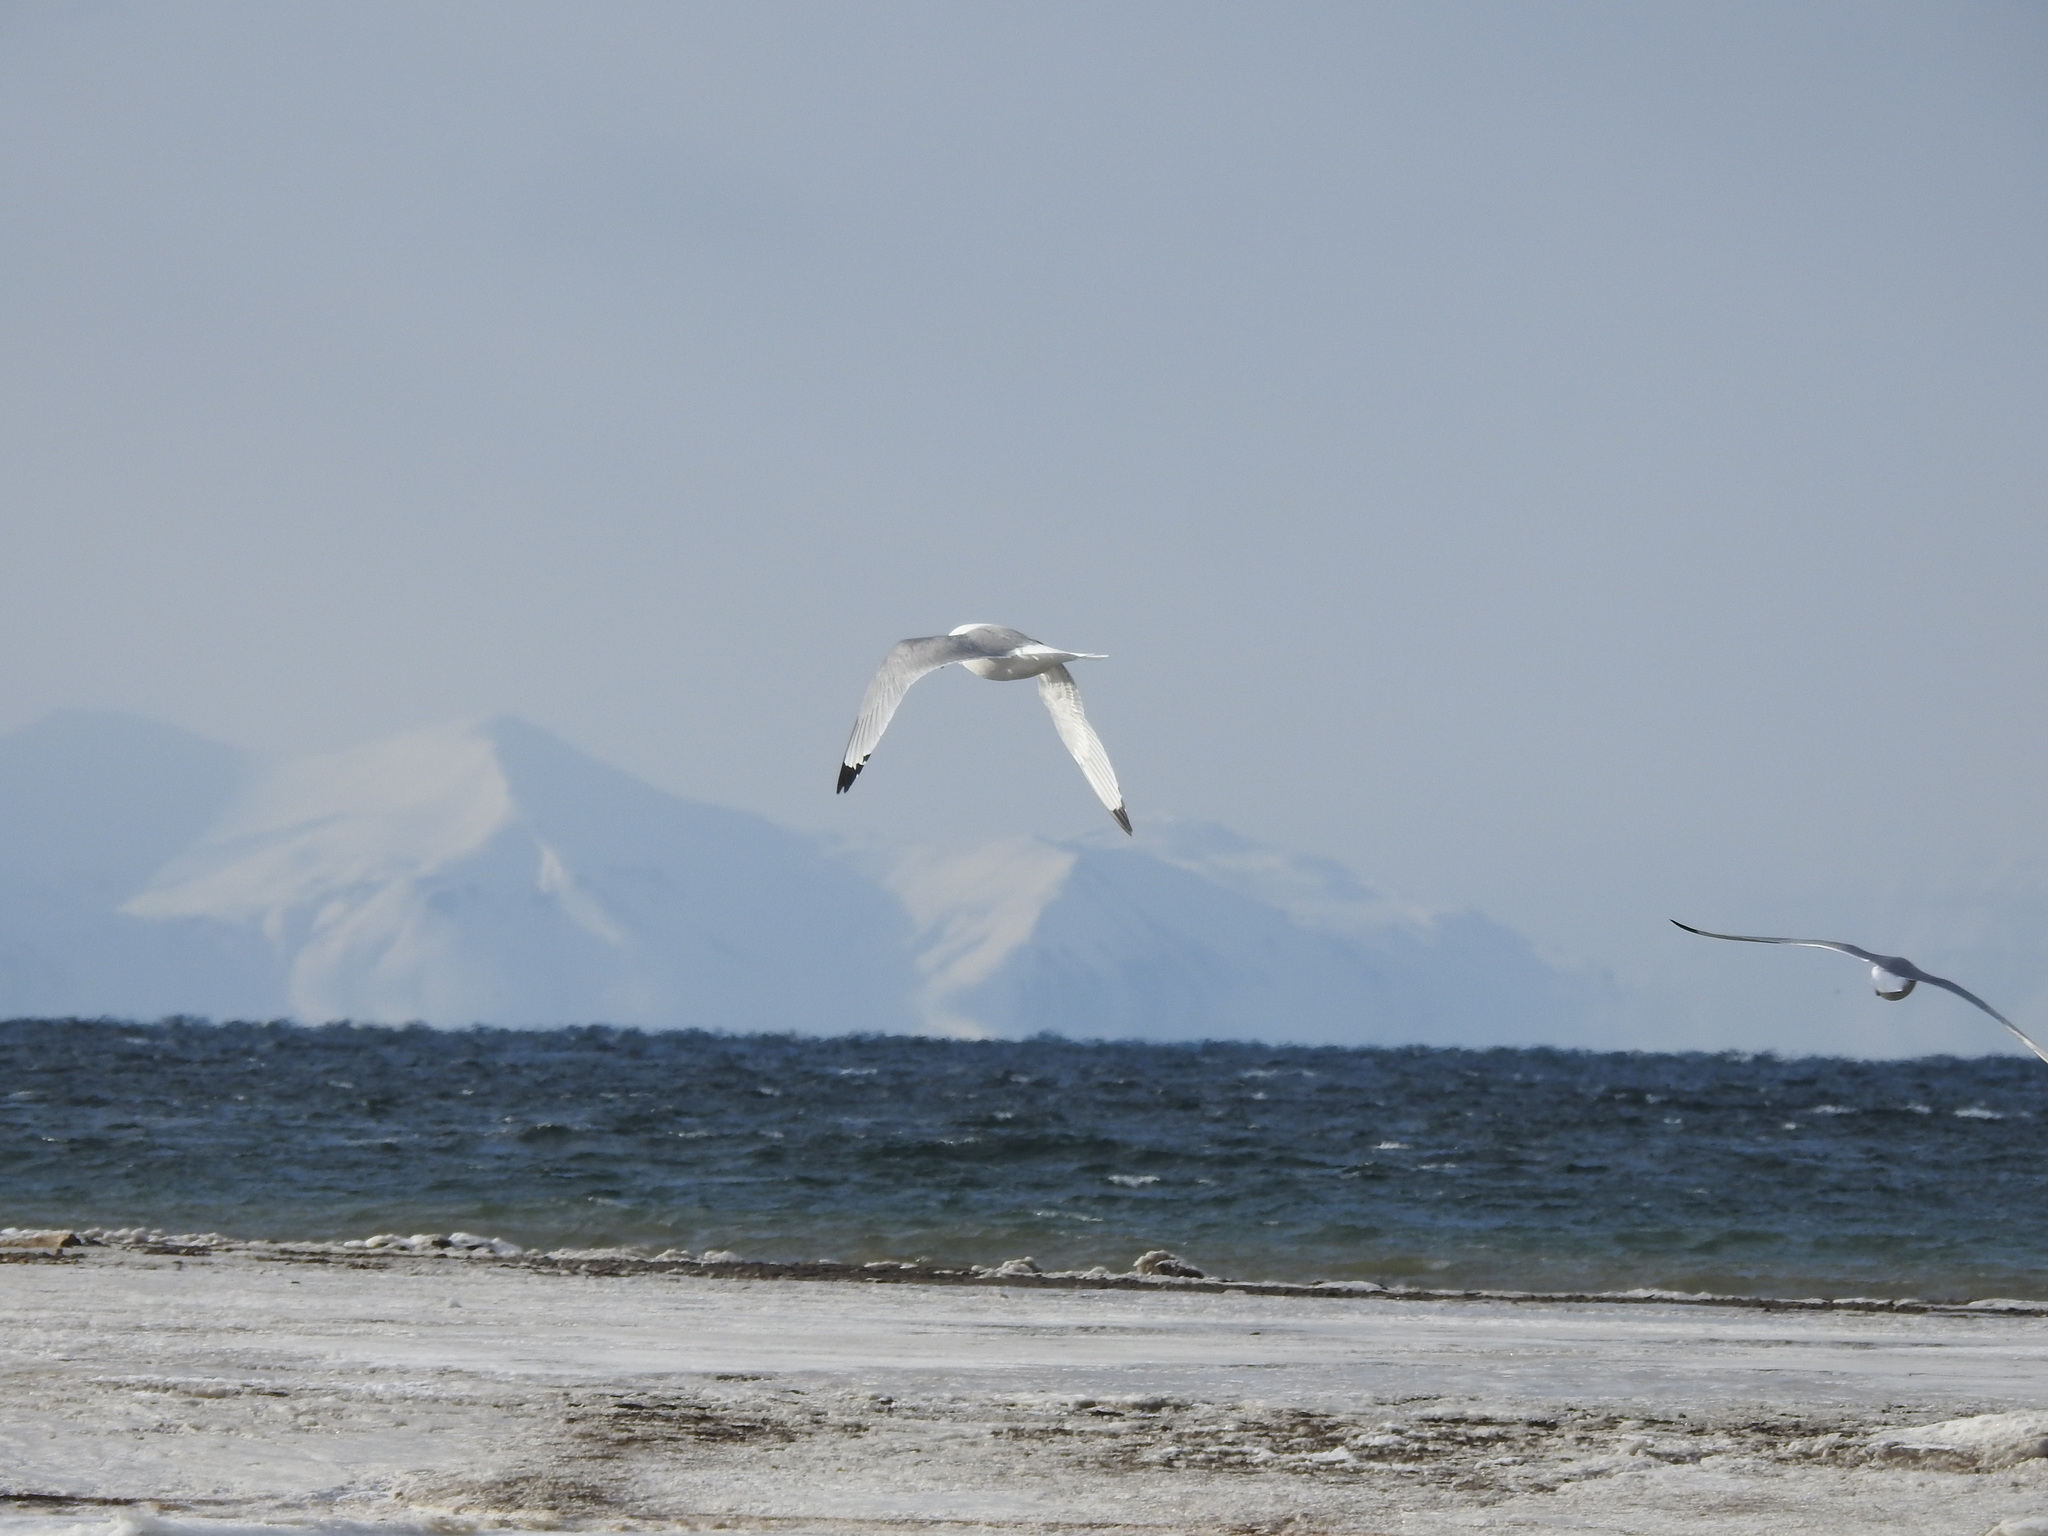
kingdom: Animalia
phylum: Chordata
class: Aves
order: Charadriiformes
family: Laridae
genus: Rissa
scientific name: Rissa tridactyla
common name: Black-legged kittiwake
